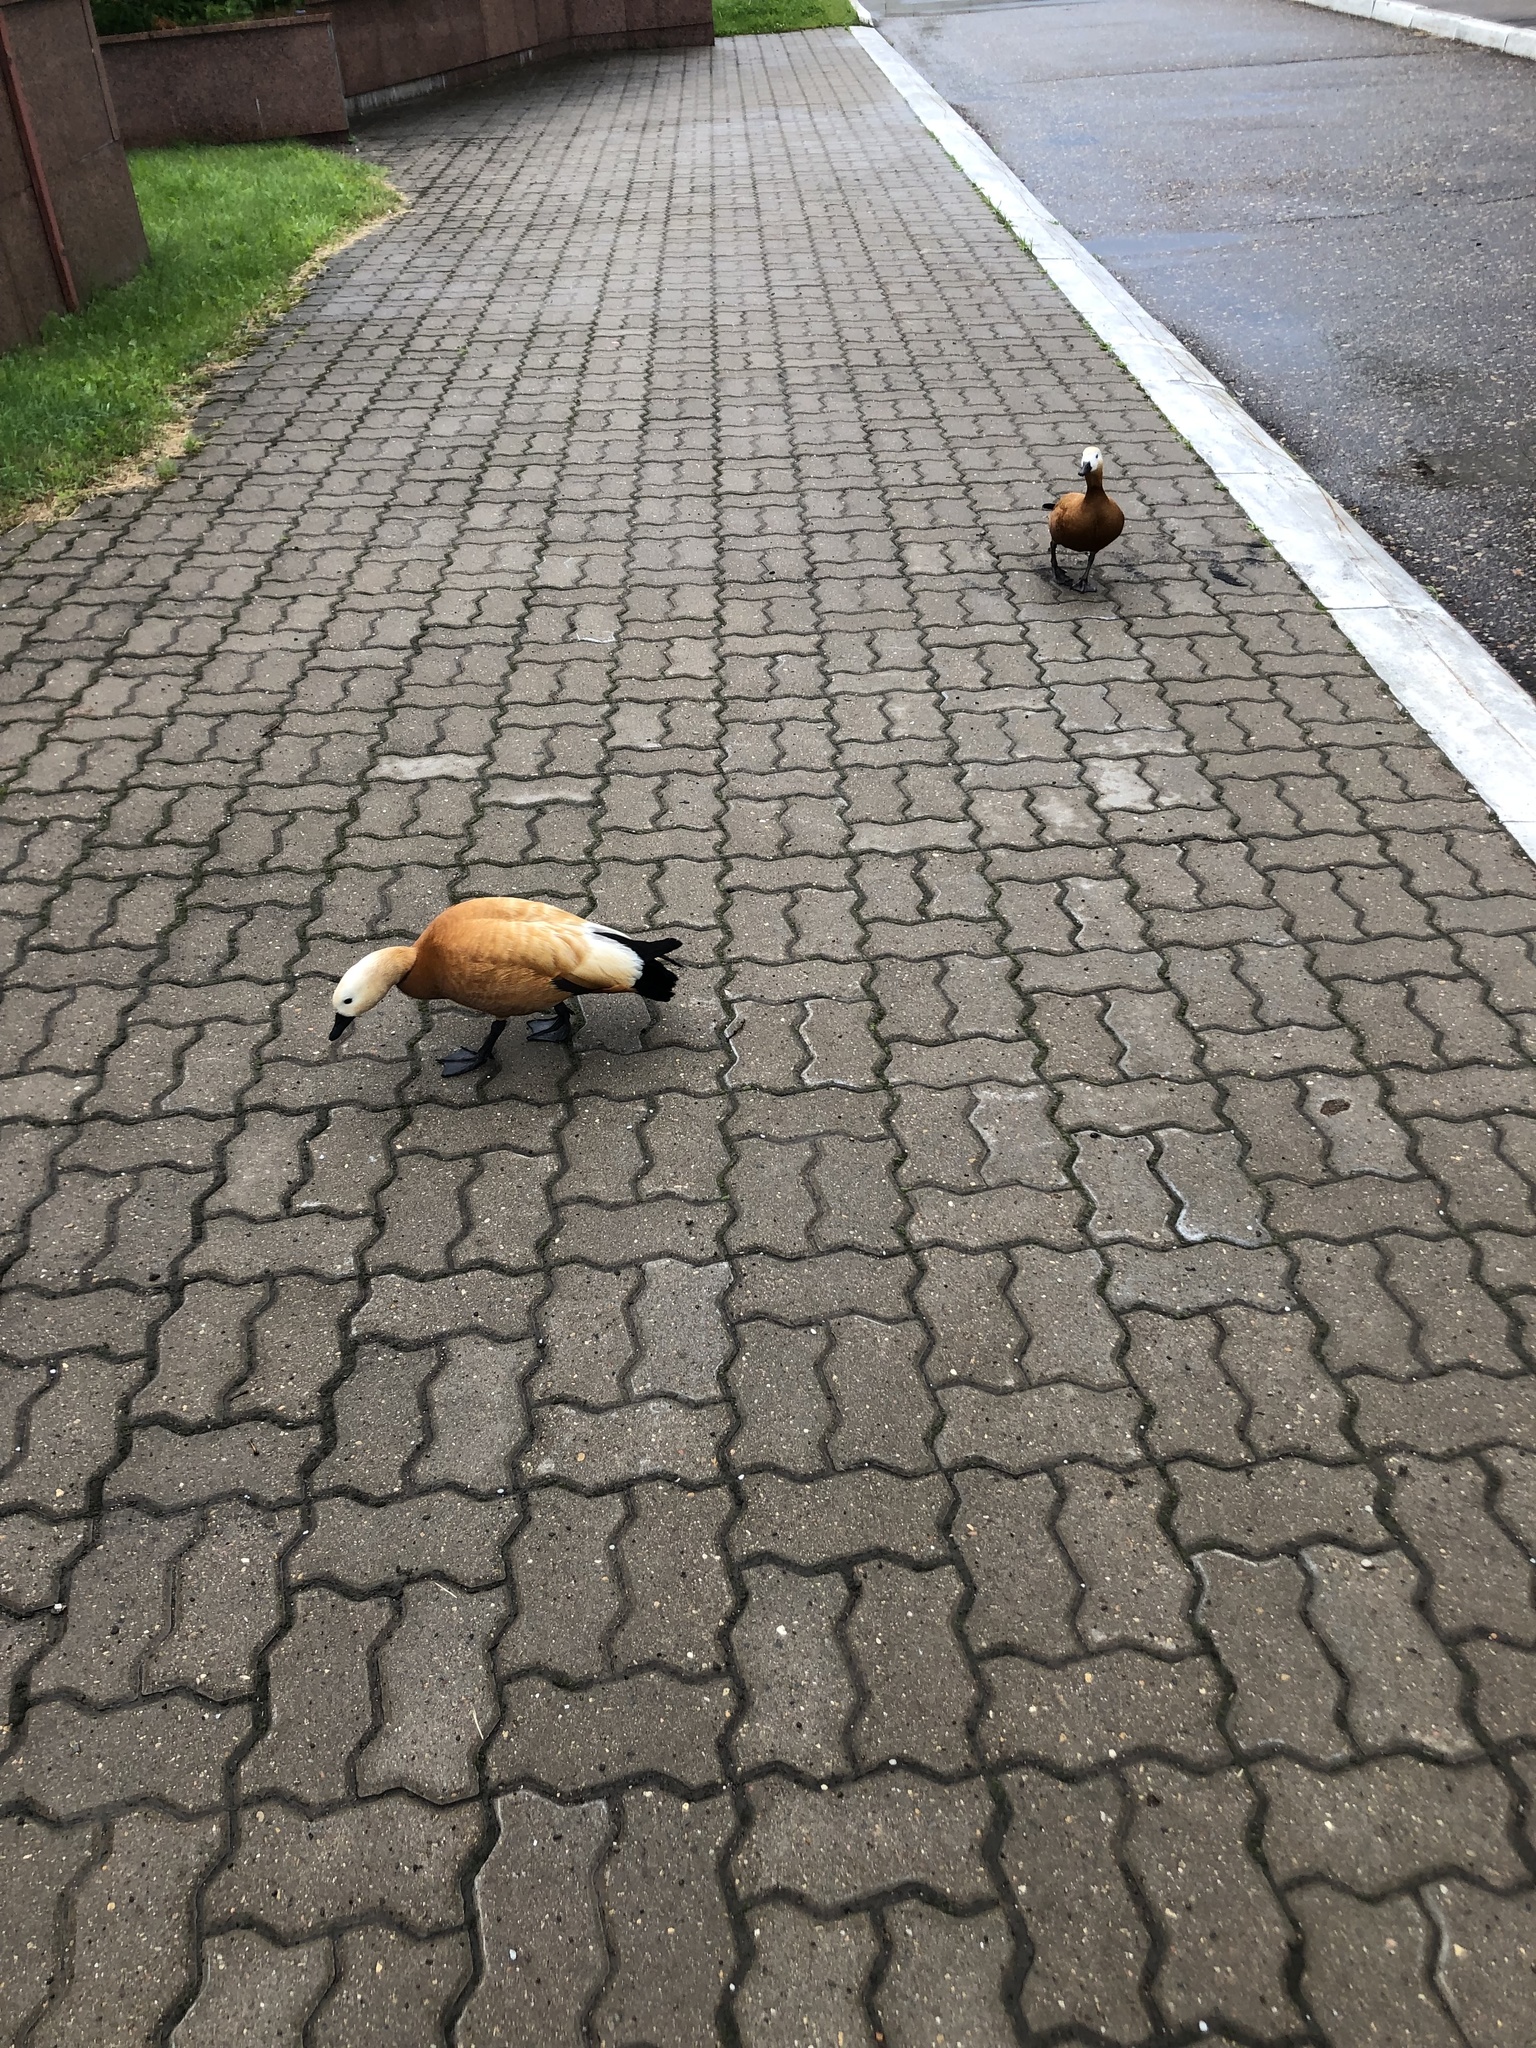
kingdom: Animalia
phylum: Chordata
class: Aves
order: Anseriformes
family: Anatidae
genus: Tadorna
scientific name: Tadorna ferruginea
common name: Ruddy shelduck
